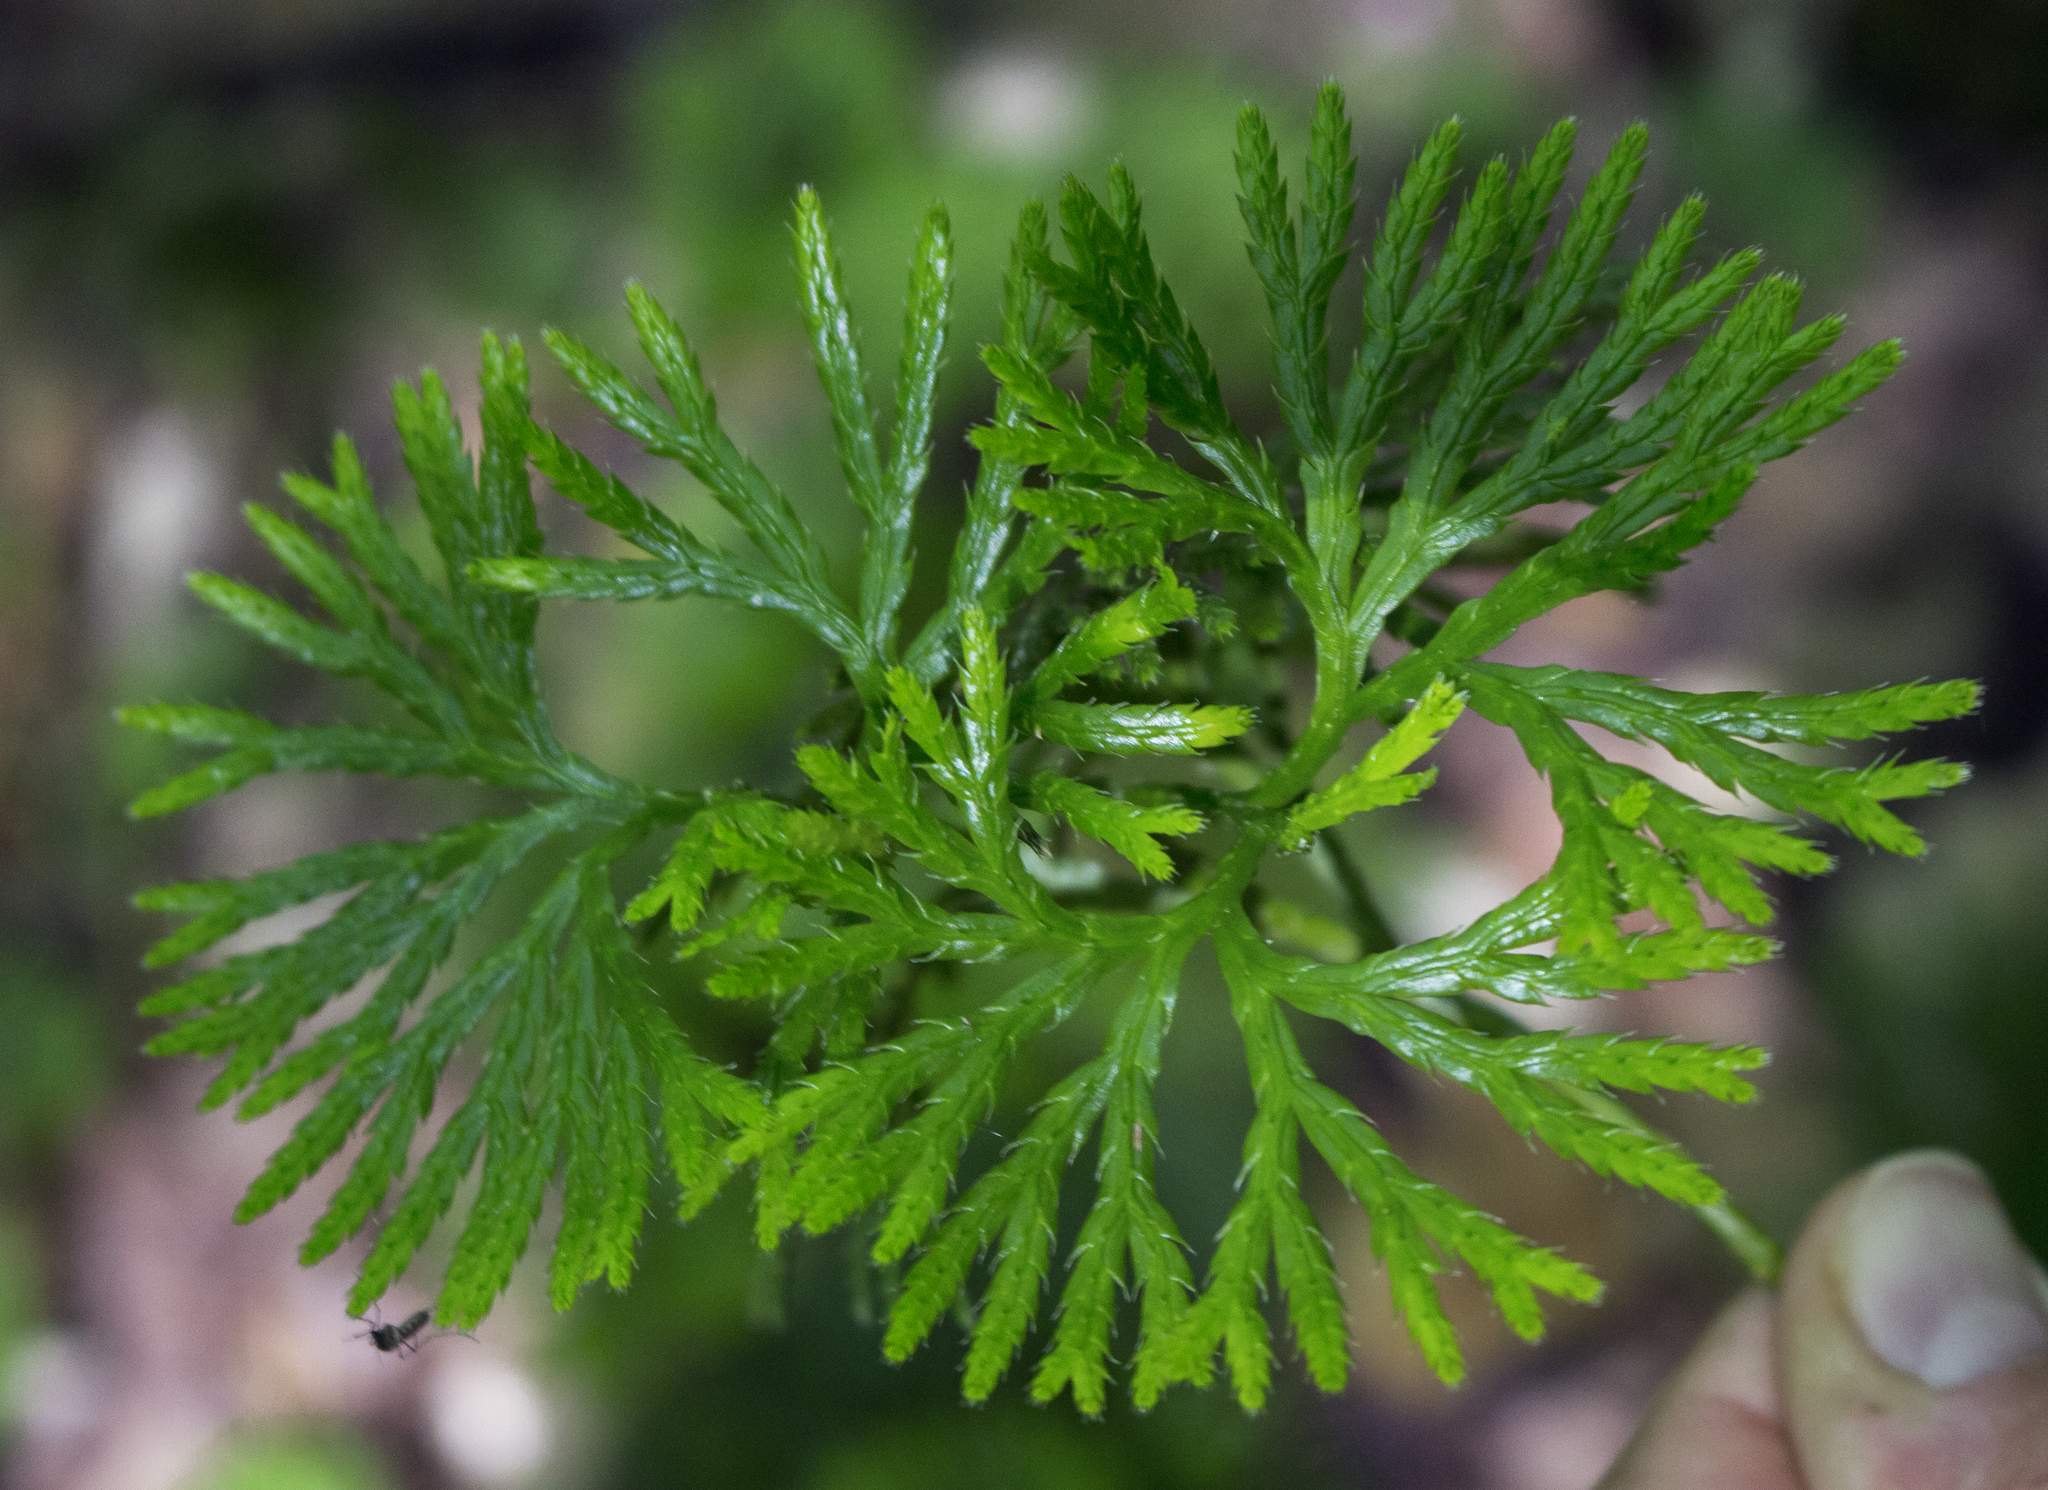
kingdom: Plantae
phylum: Tracheophyta
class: Lycopodiopsida
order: Lycopodiales
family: Lycopodiaceae
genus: Diphasiastrum
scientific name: Diphasiastrum digitatum
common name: Southern running-pine
